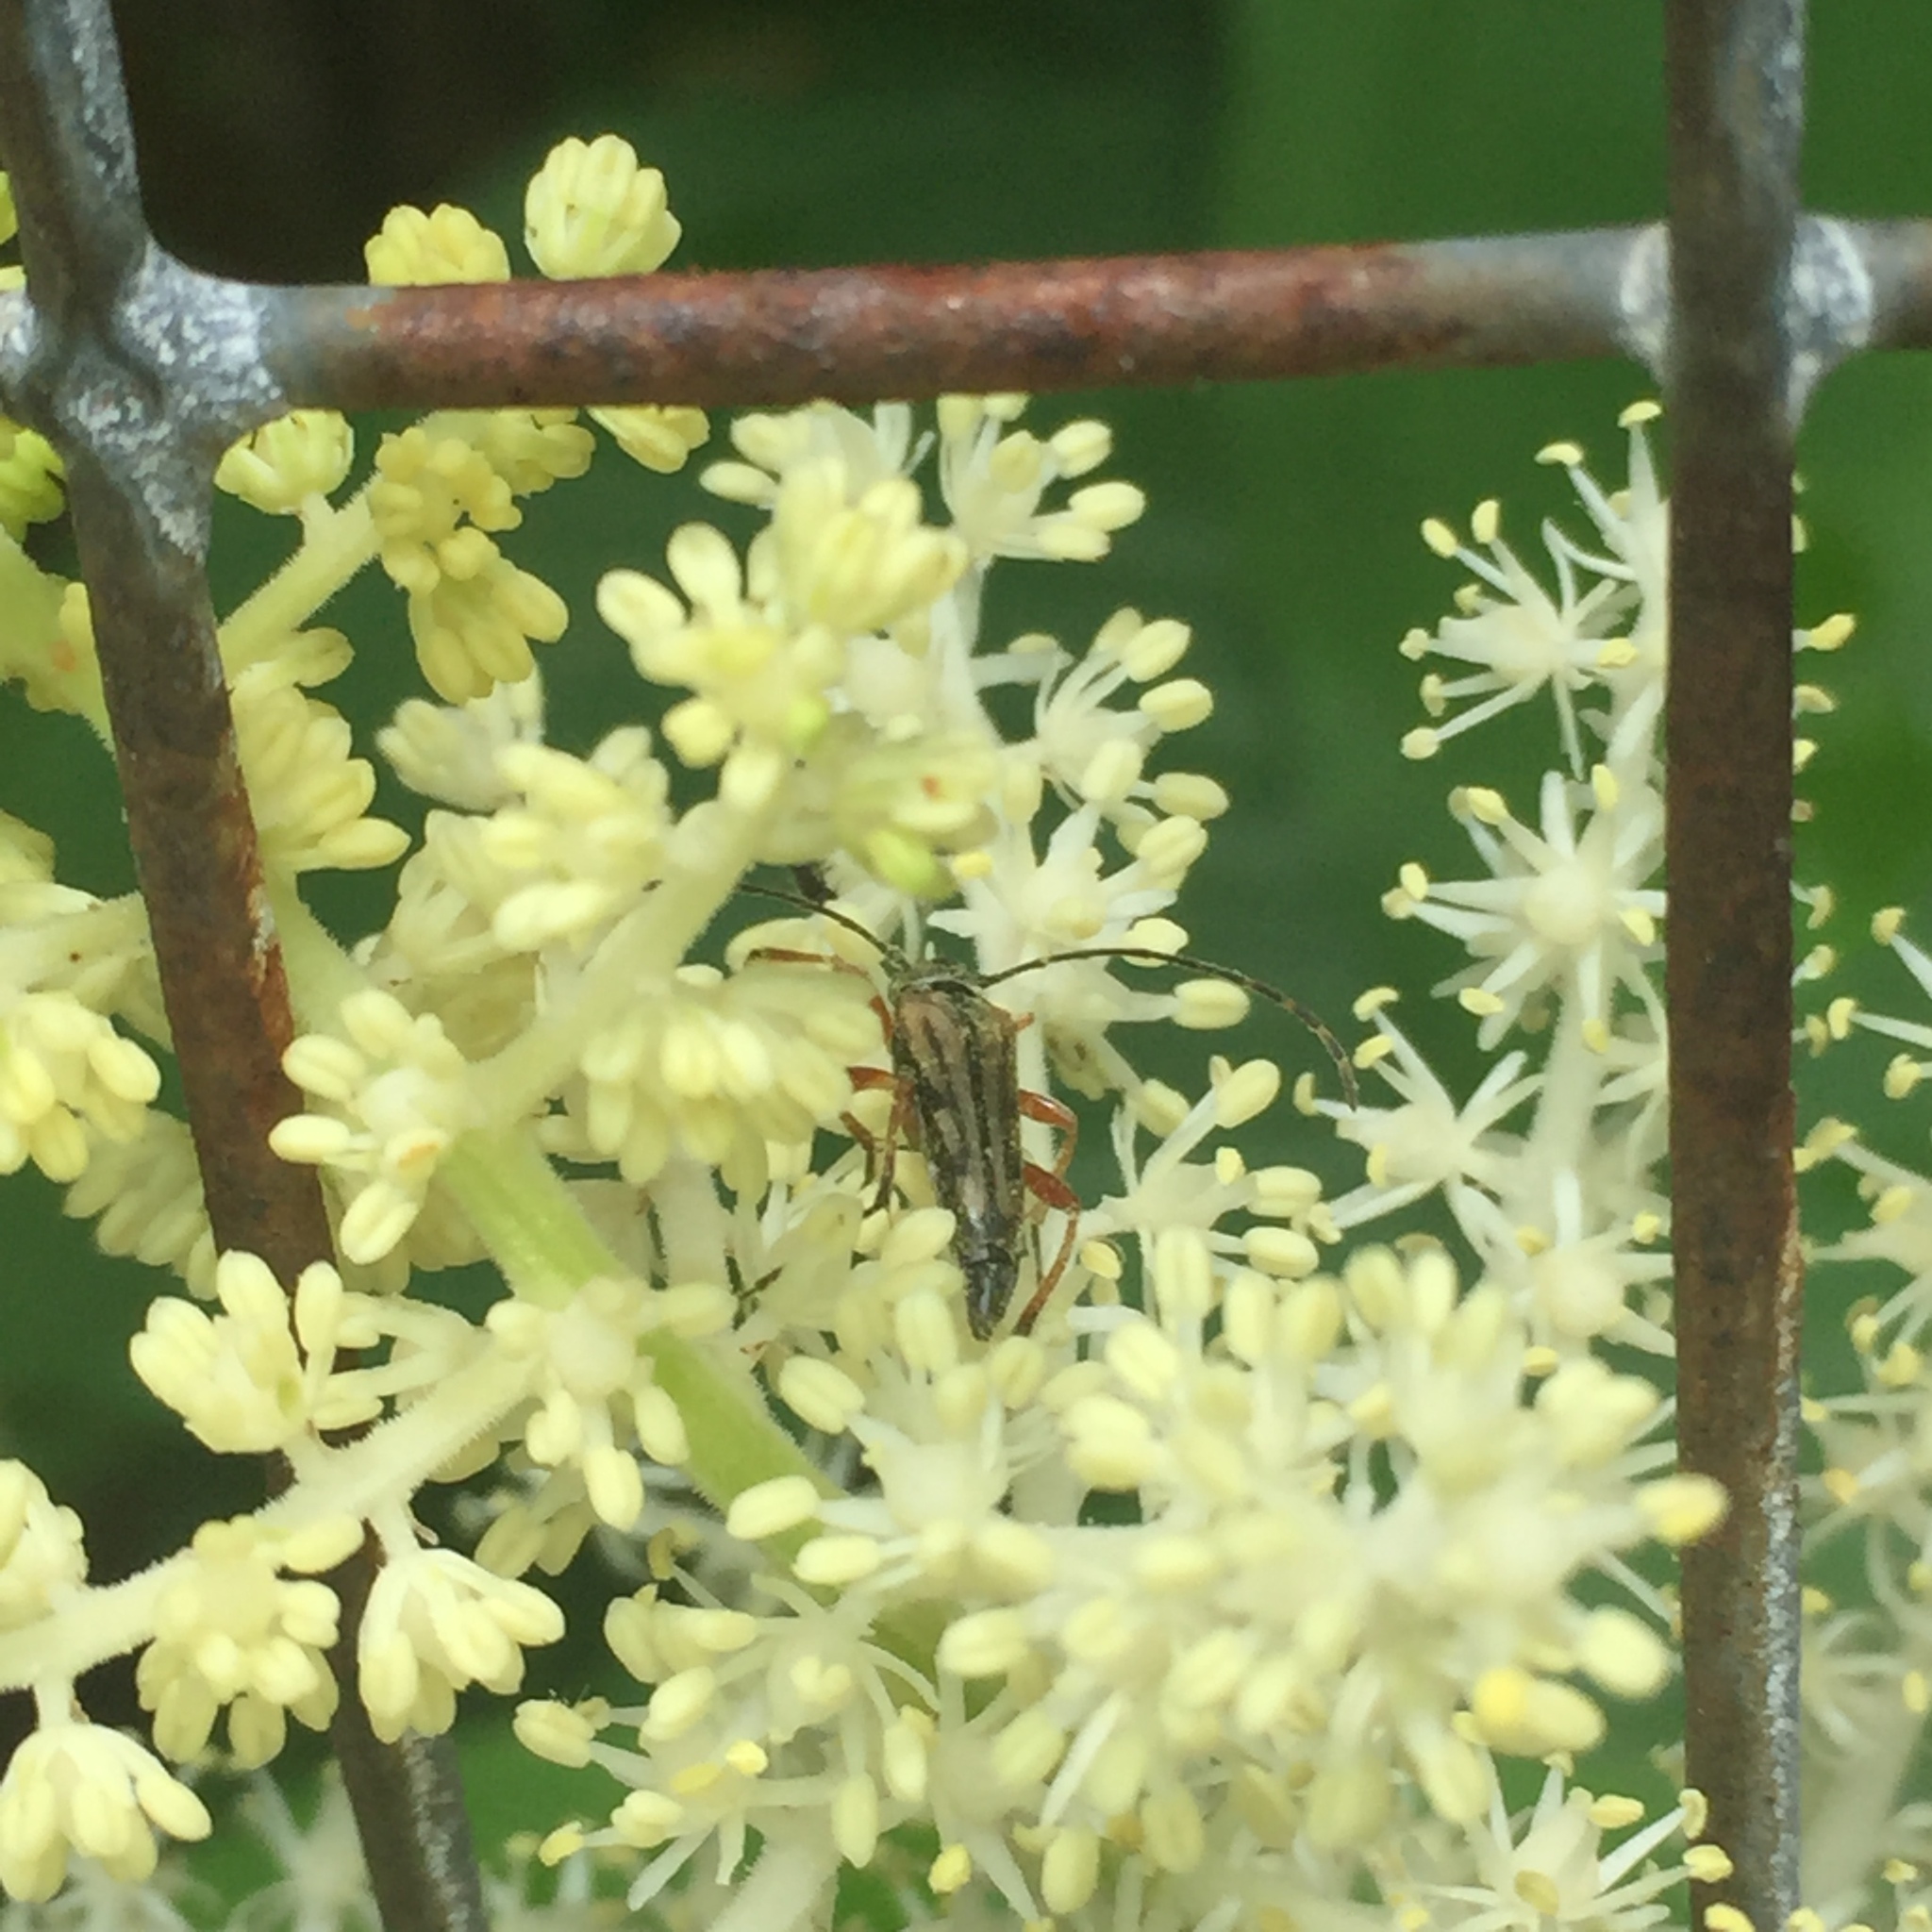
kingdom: Animalia
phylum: Arthropoda
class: Insecta
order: Coleoptera
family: Cerambycidae
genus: Analeptura
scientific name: Analeptura lineola
